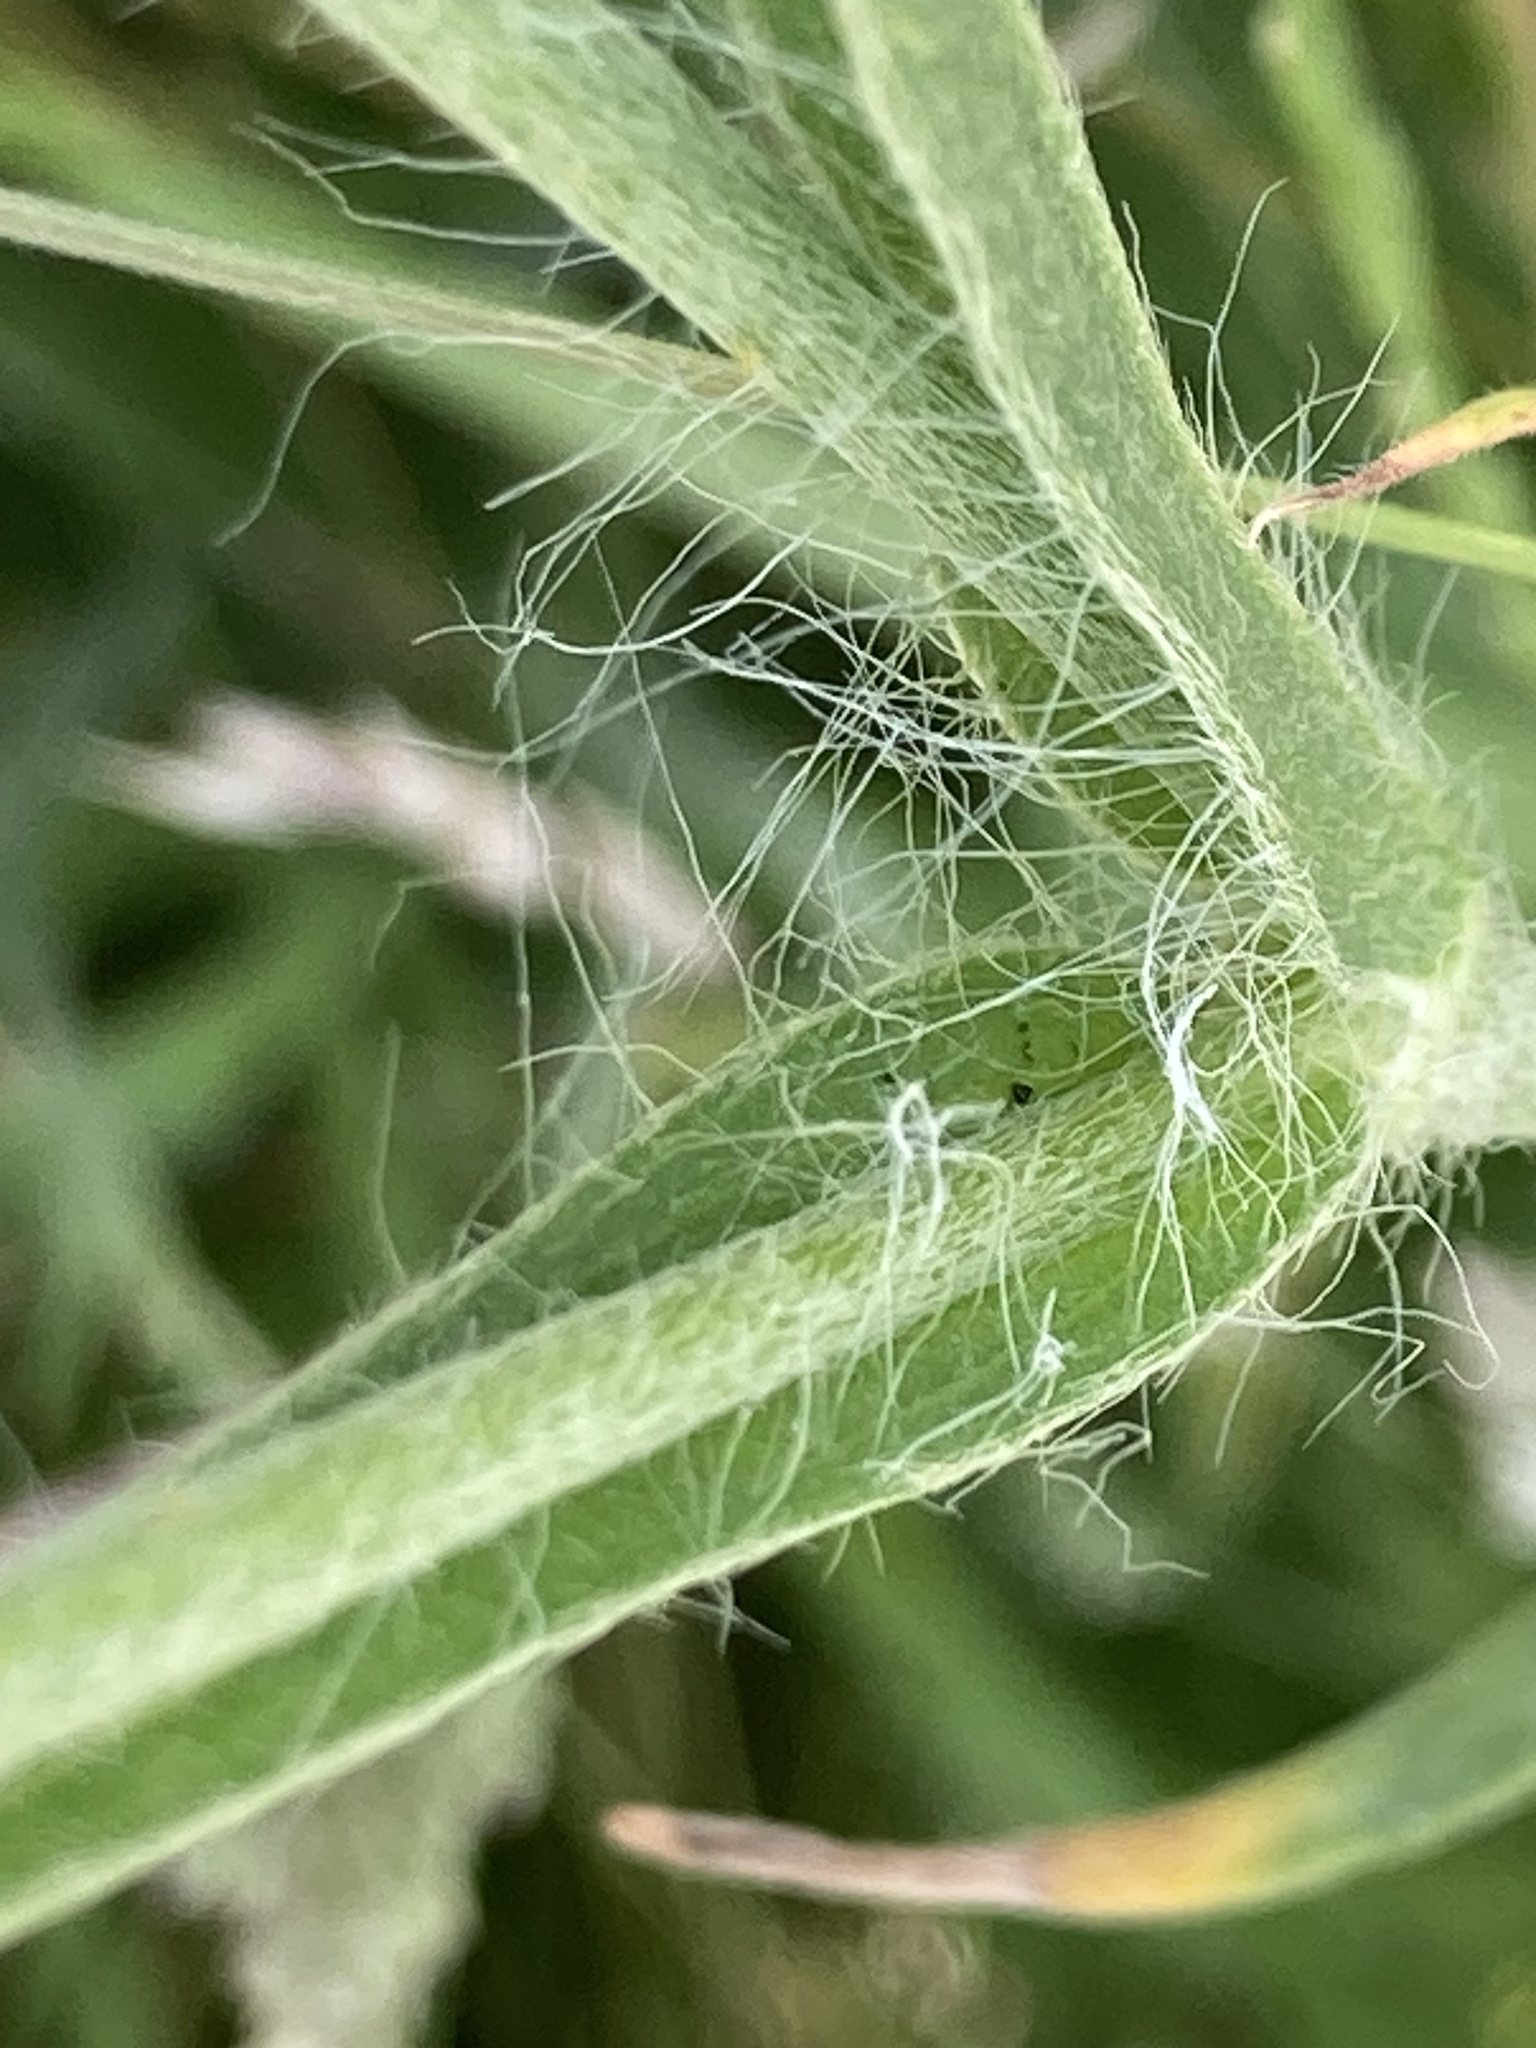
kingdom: Plantae
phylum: Tracheophyta
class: Magnoliopsida
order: Caryophyllales
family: Caryophyllaceae
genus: Agrostemma
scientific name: Agrostemma githago
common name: Common corncockle
